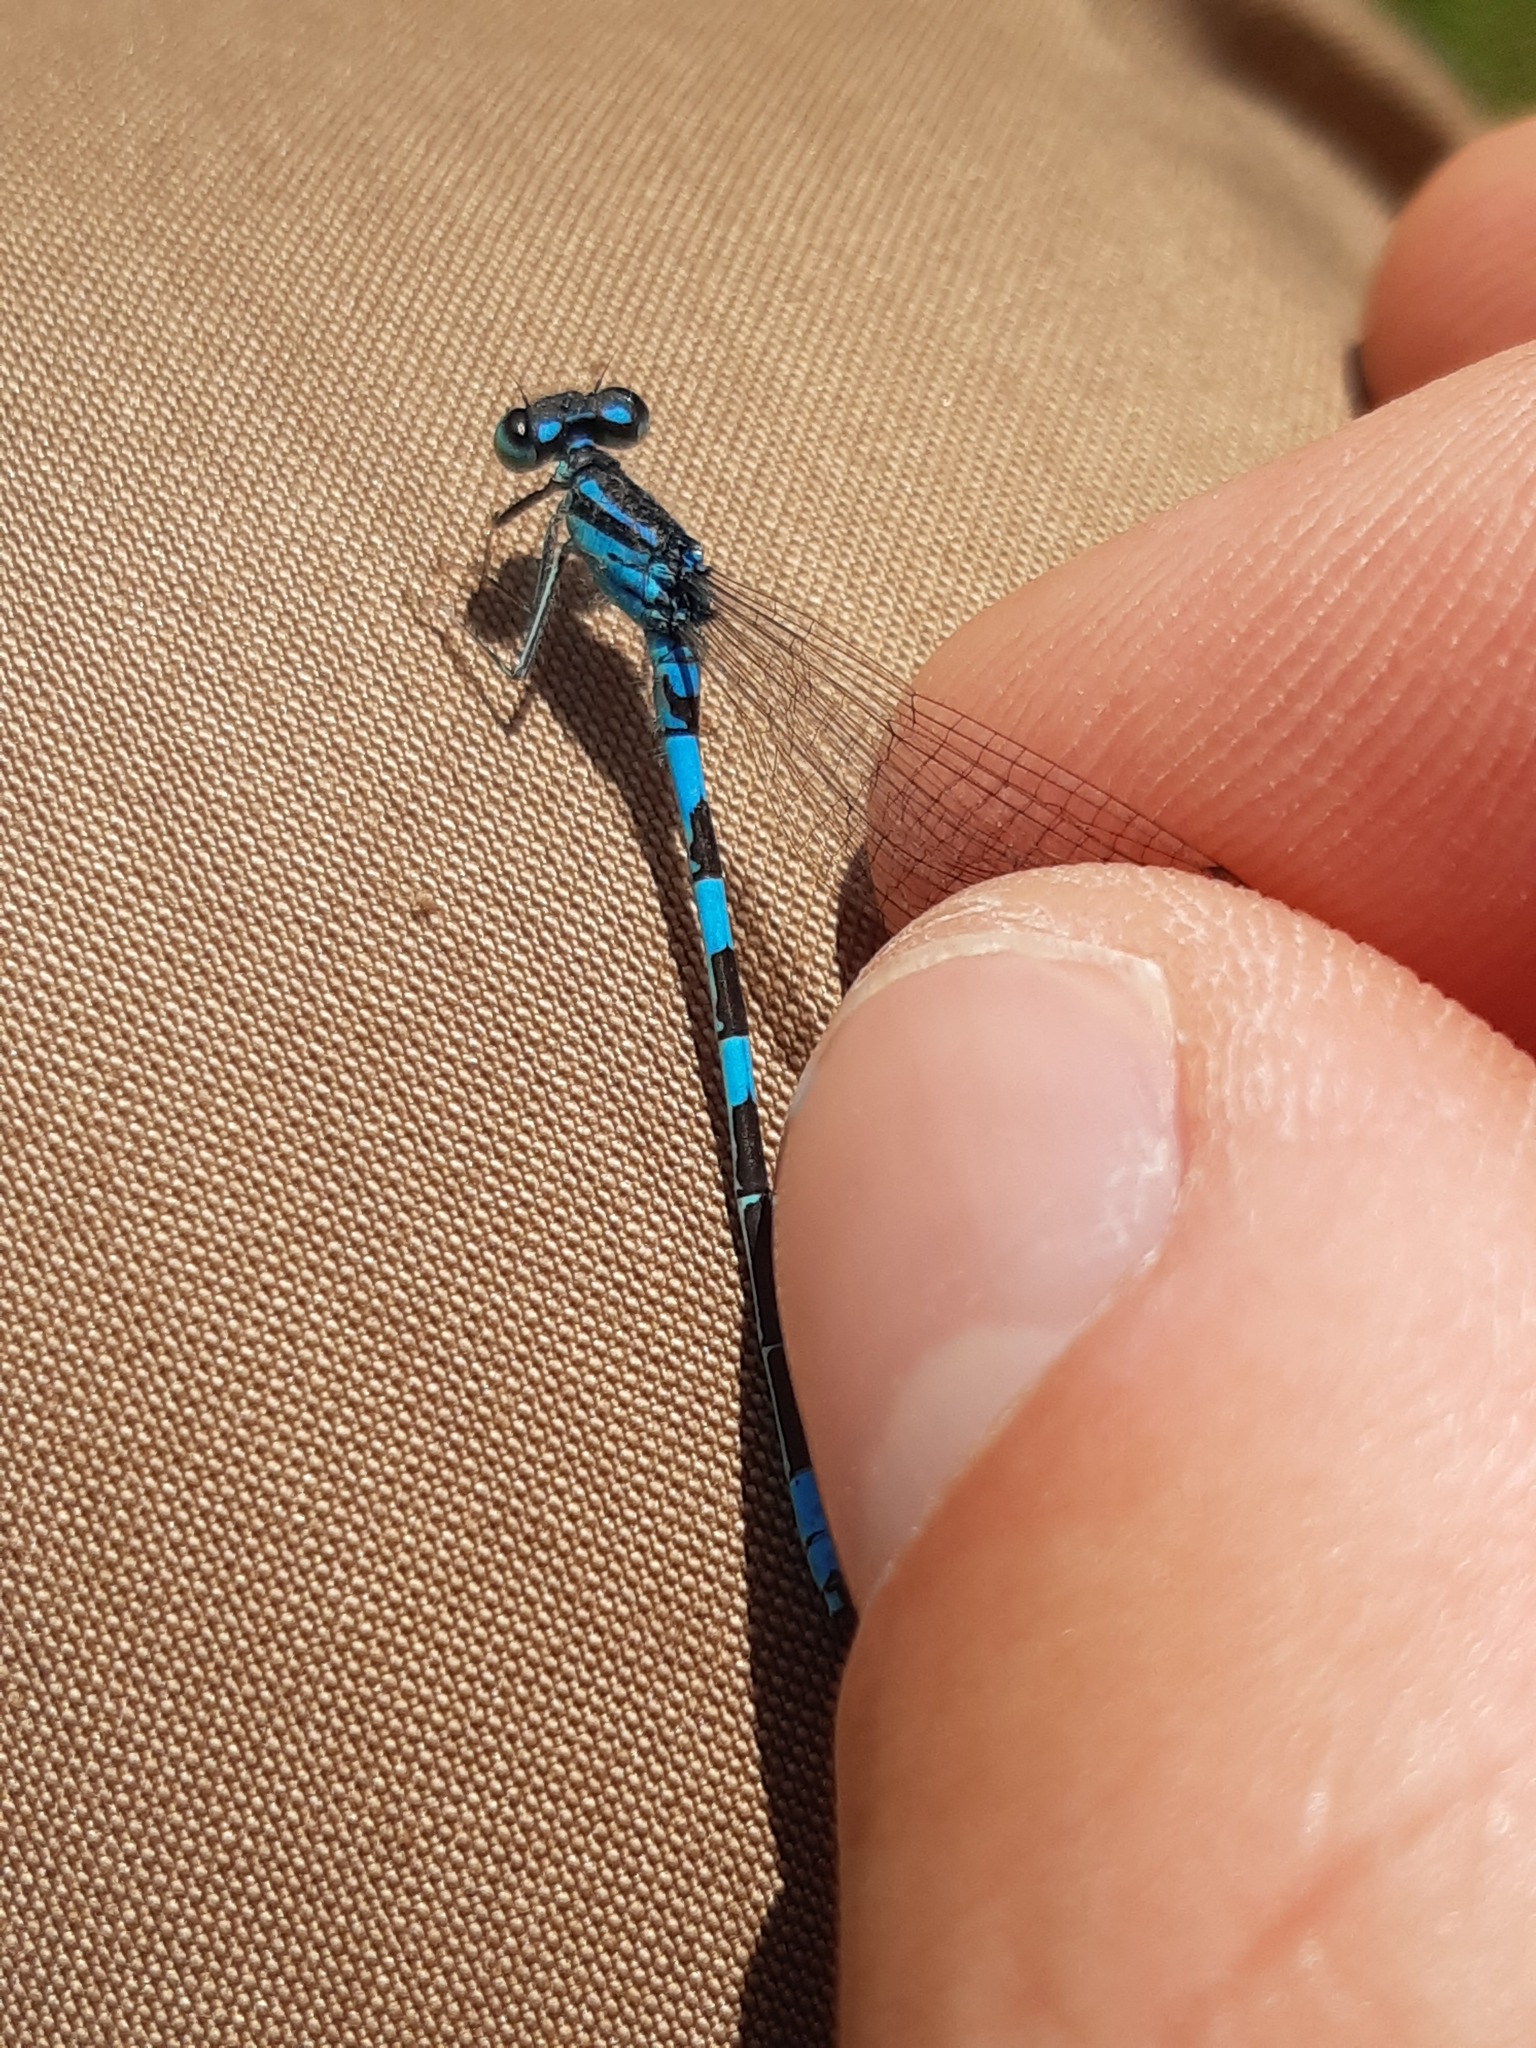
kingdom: Animalia
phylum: Arthropoda
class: Insecta
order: Odonata
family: Coenagrionidae
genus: Coenagrion
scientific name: Coenagrion scitulum
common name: Dainty bluet
